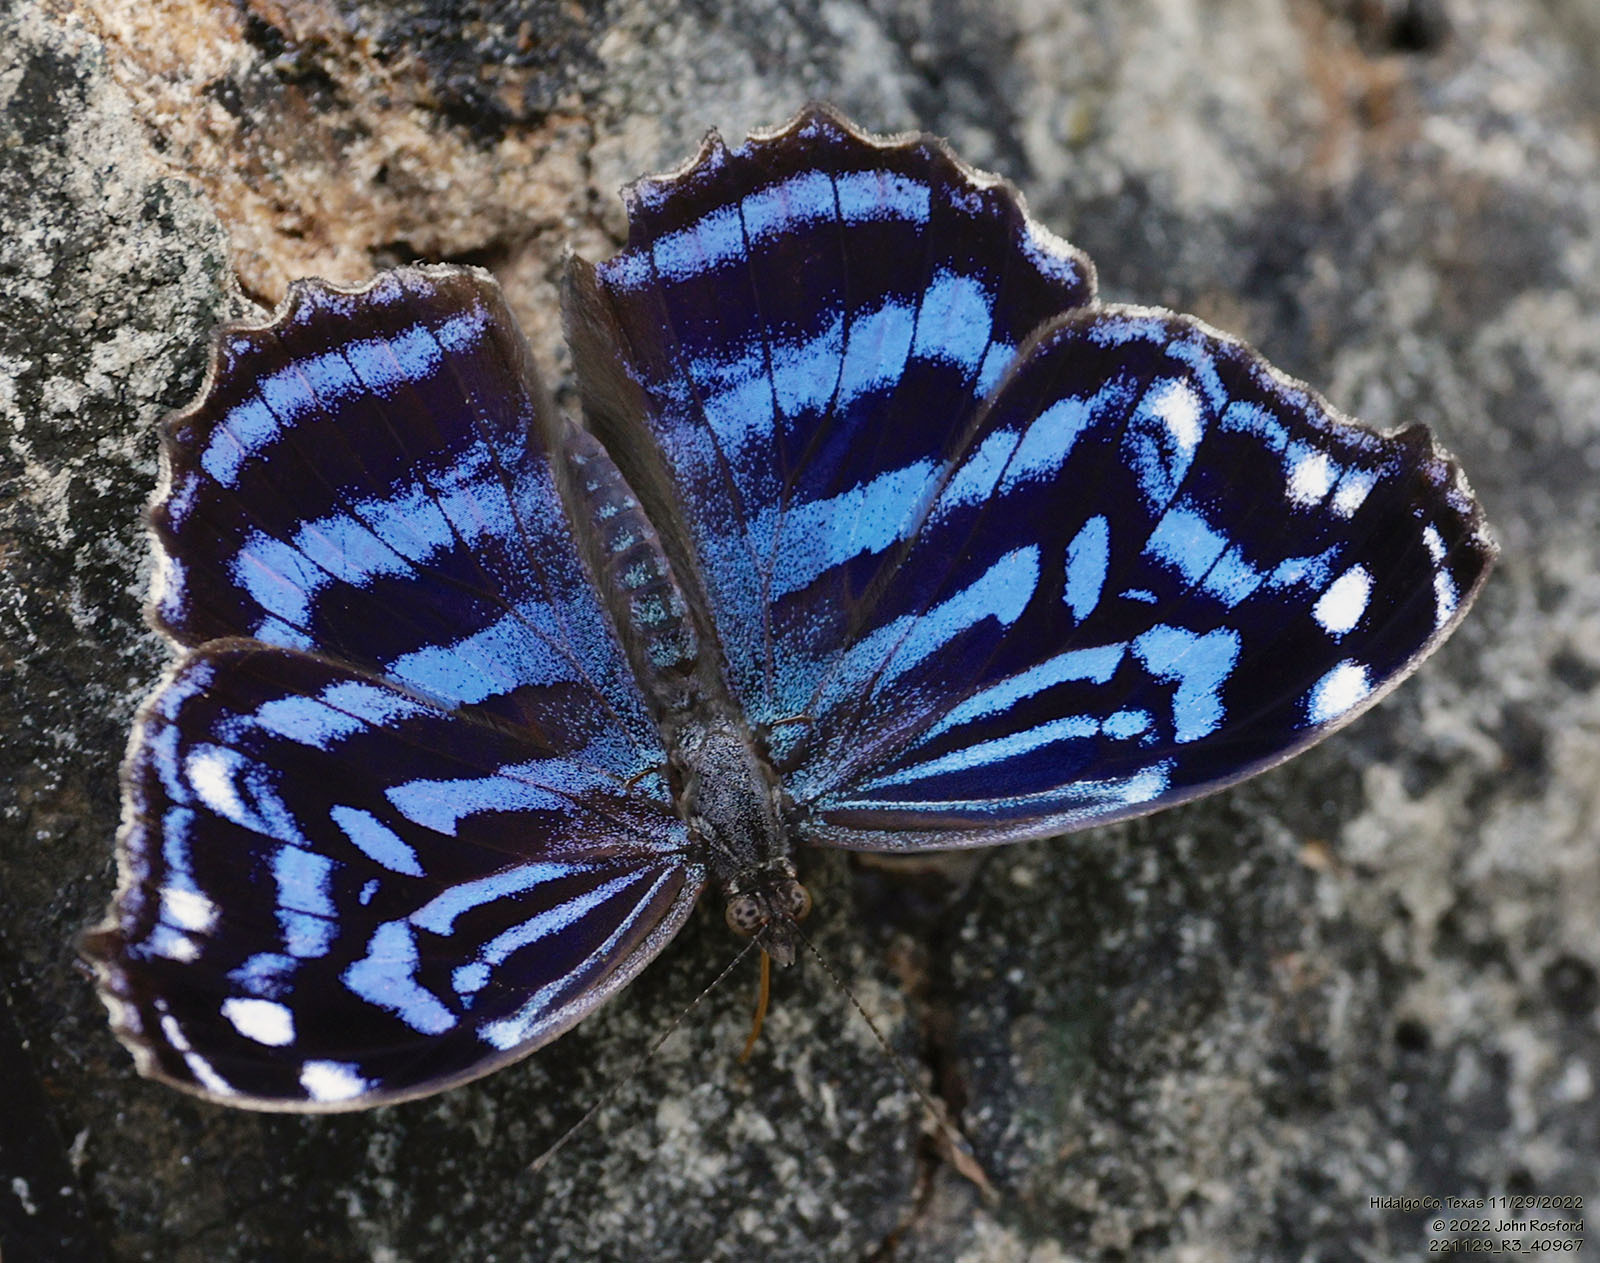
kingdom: Animalia
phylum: Arthropoda
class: Insecta
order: Lepidoptera
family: Nymphalidae
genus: Myscelia
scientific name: Myscelia ethusa
